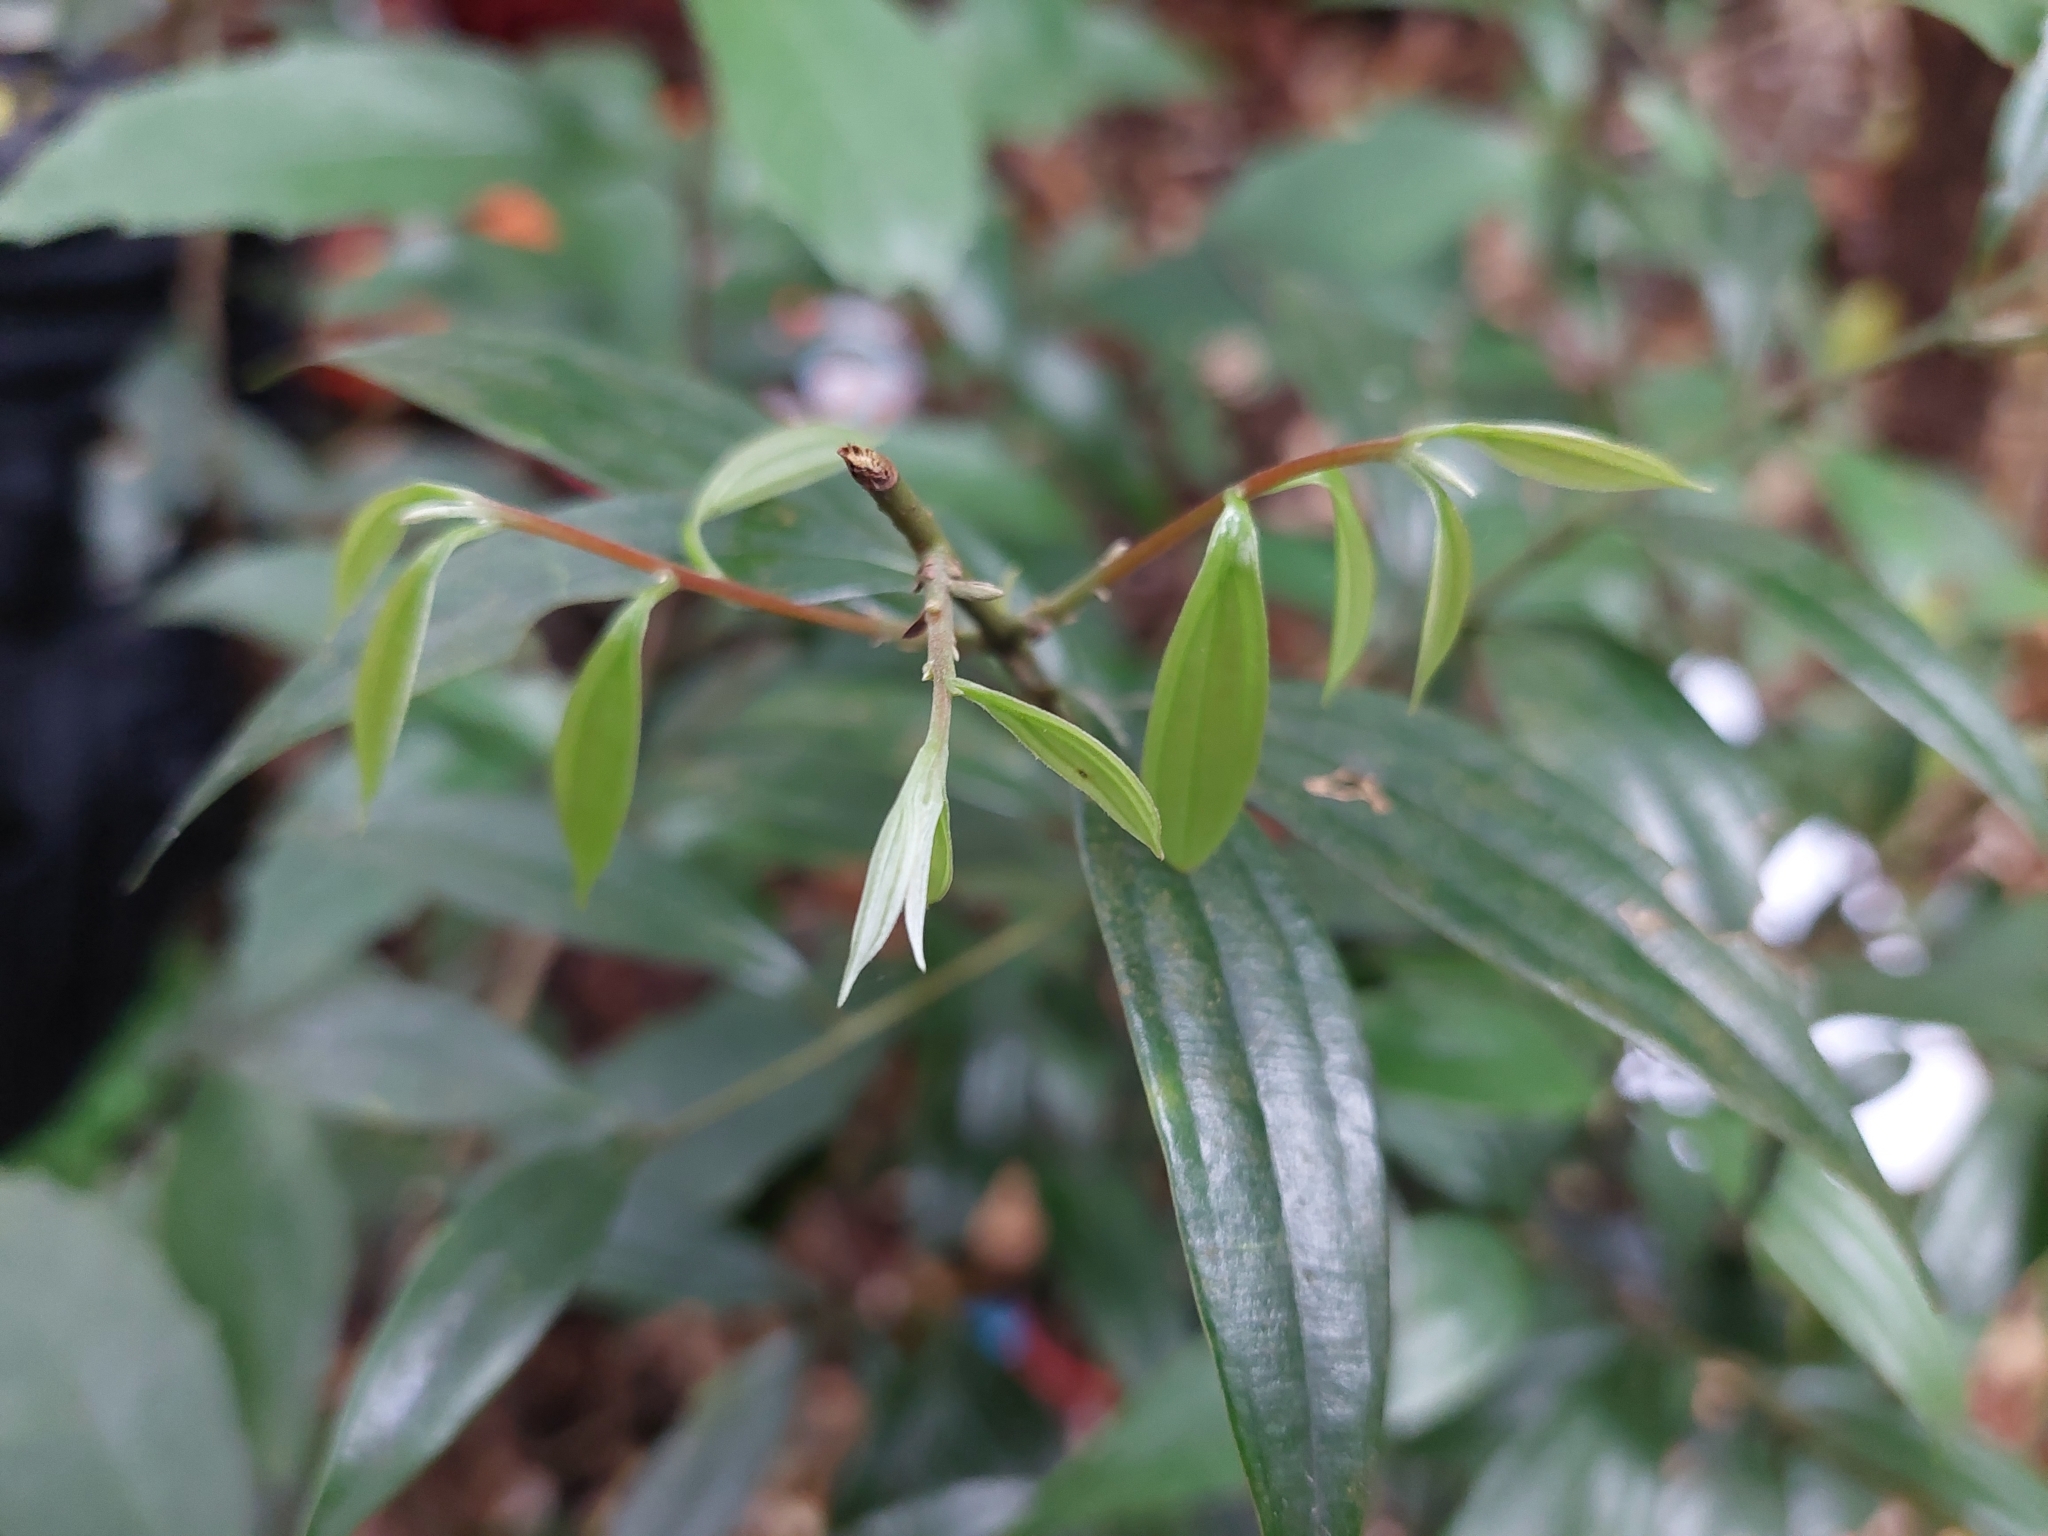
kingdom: Plantae
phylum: Tracheophyta
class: Magnoliopsida
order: Laurales
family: Lauraceae
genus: Cinnamomum
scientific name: Cinnamomum subavenium
